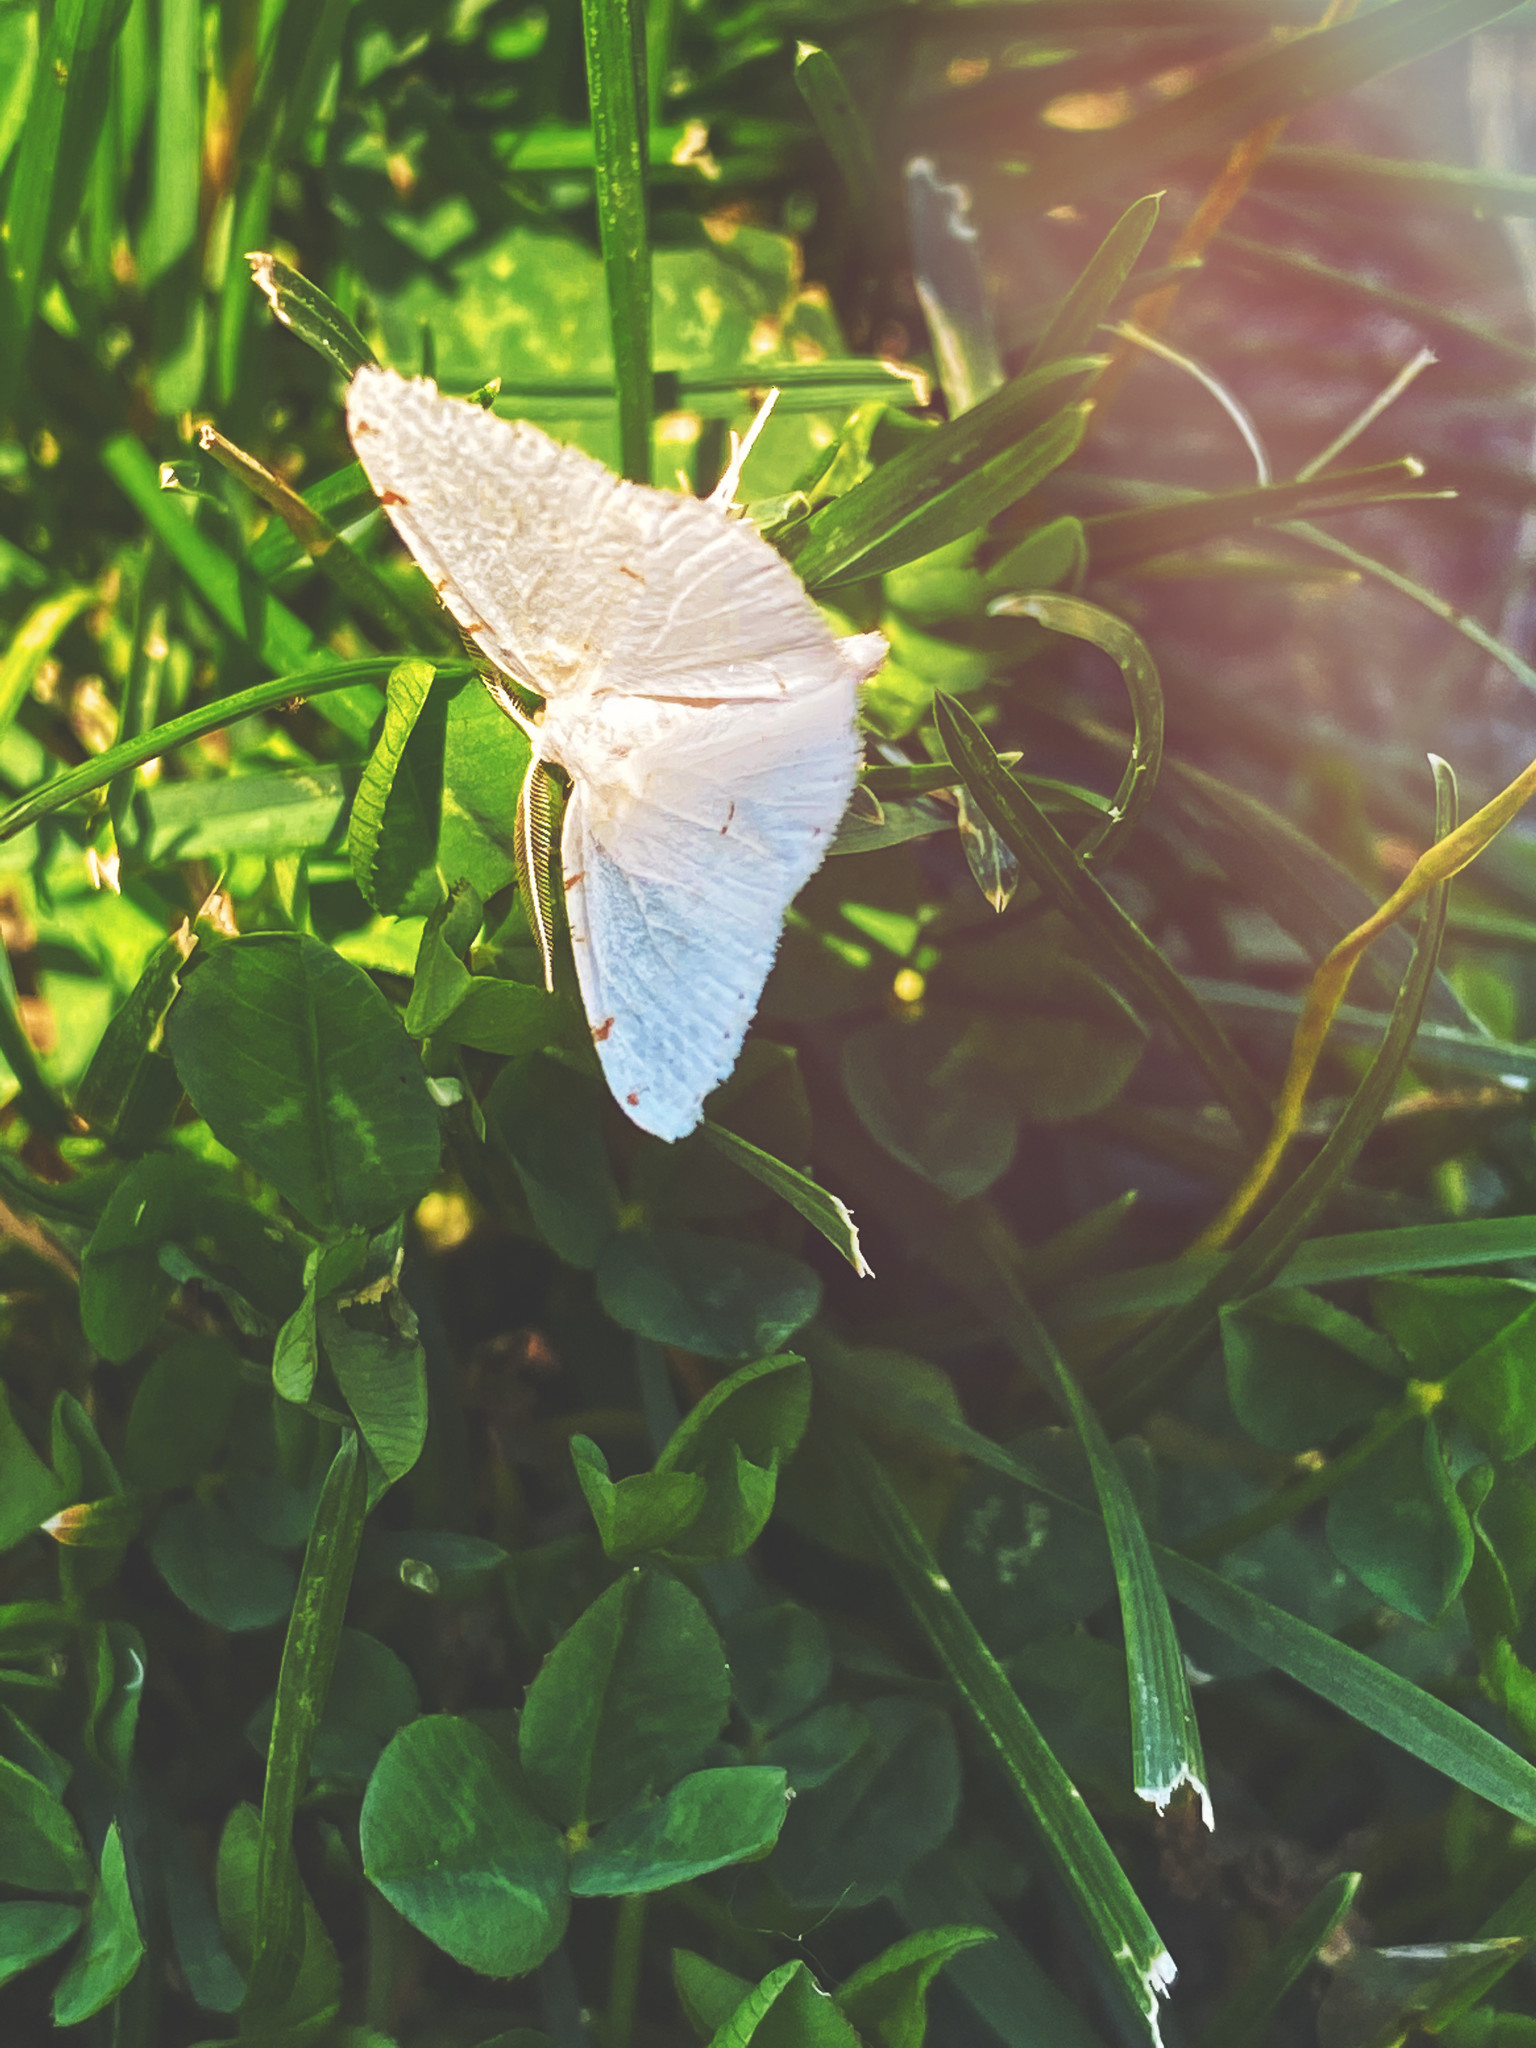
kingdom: Animalia
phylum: Arthropoda
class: Insecta
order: Lepidoptera
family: Geometridae
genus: Macaria
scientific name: Macaria pustularia
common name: Lesser maple spanworm moth
